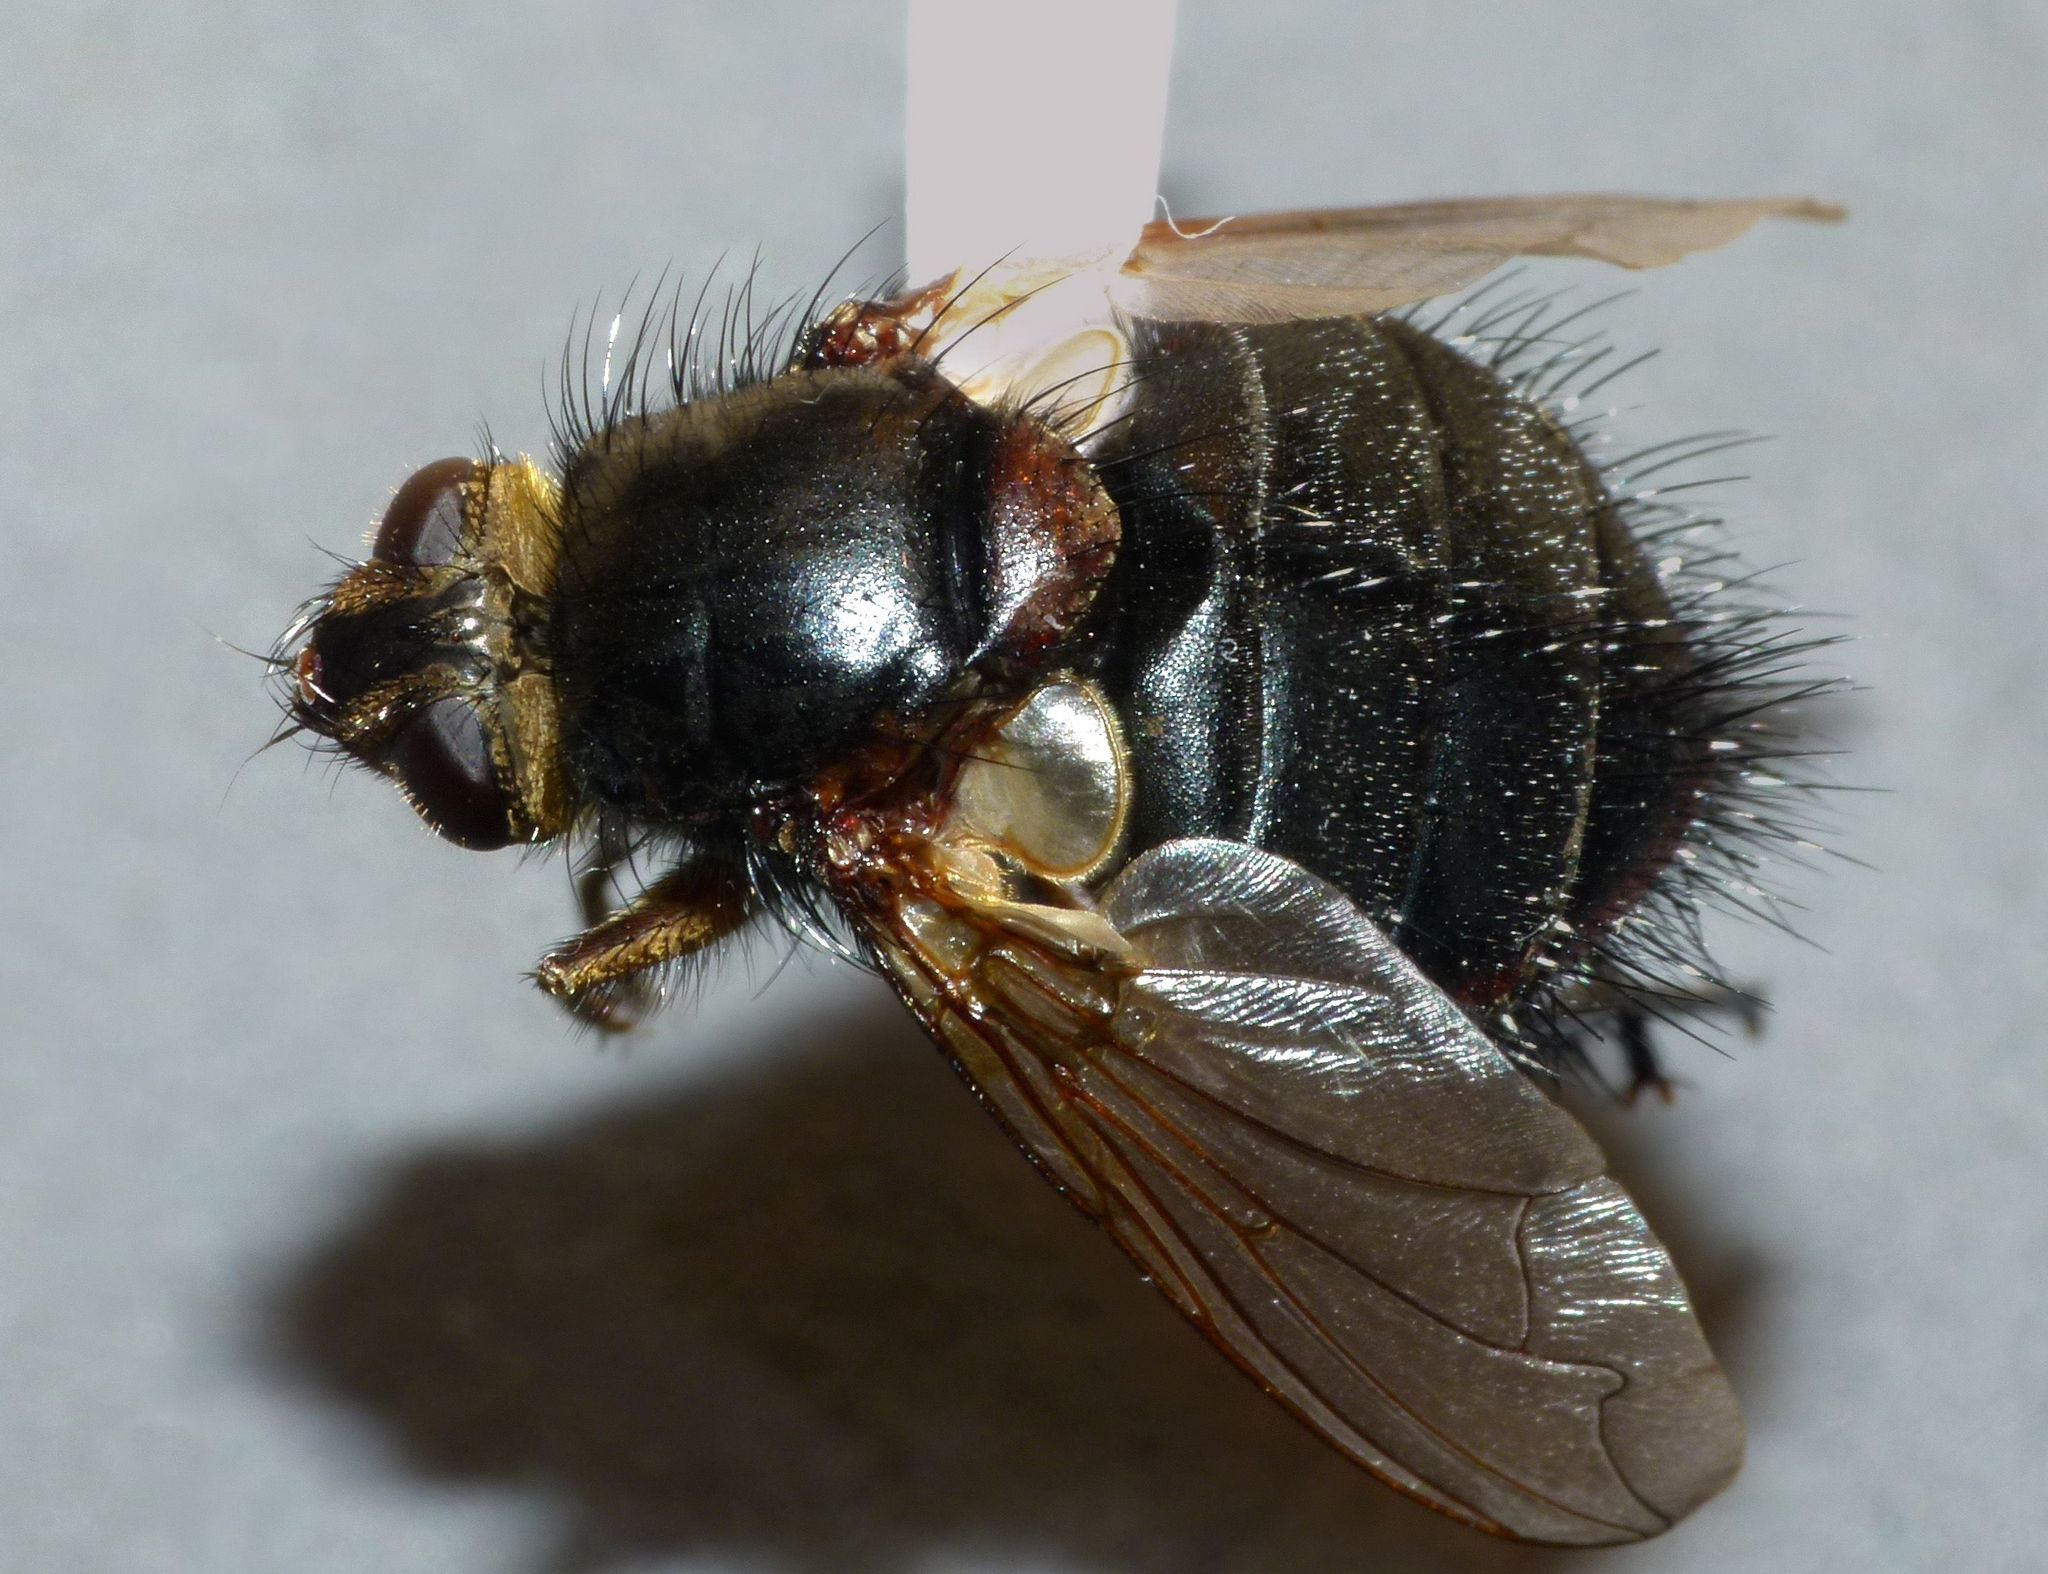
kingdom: Animalia
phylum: Arthropoda
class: Insecta
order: Diptera
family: Tachinidae
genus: Bothrophora
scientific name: Bothrophora lupina
